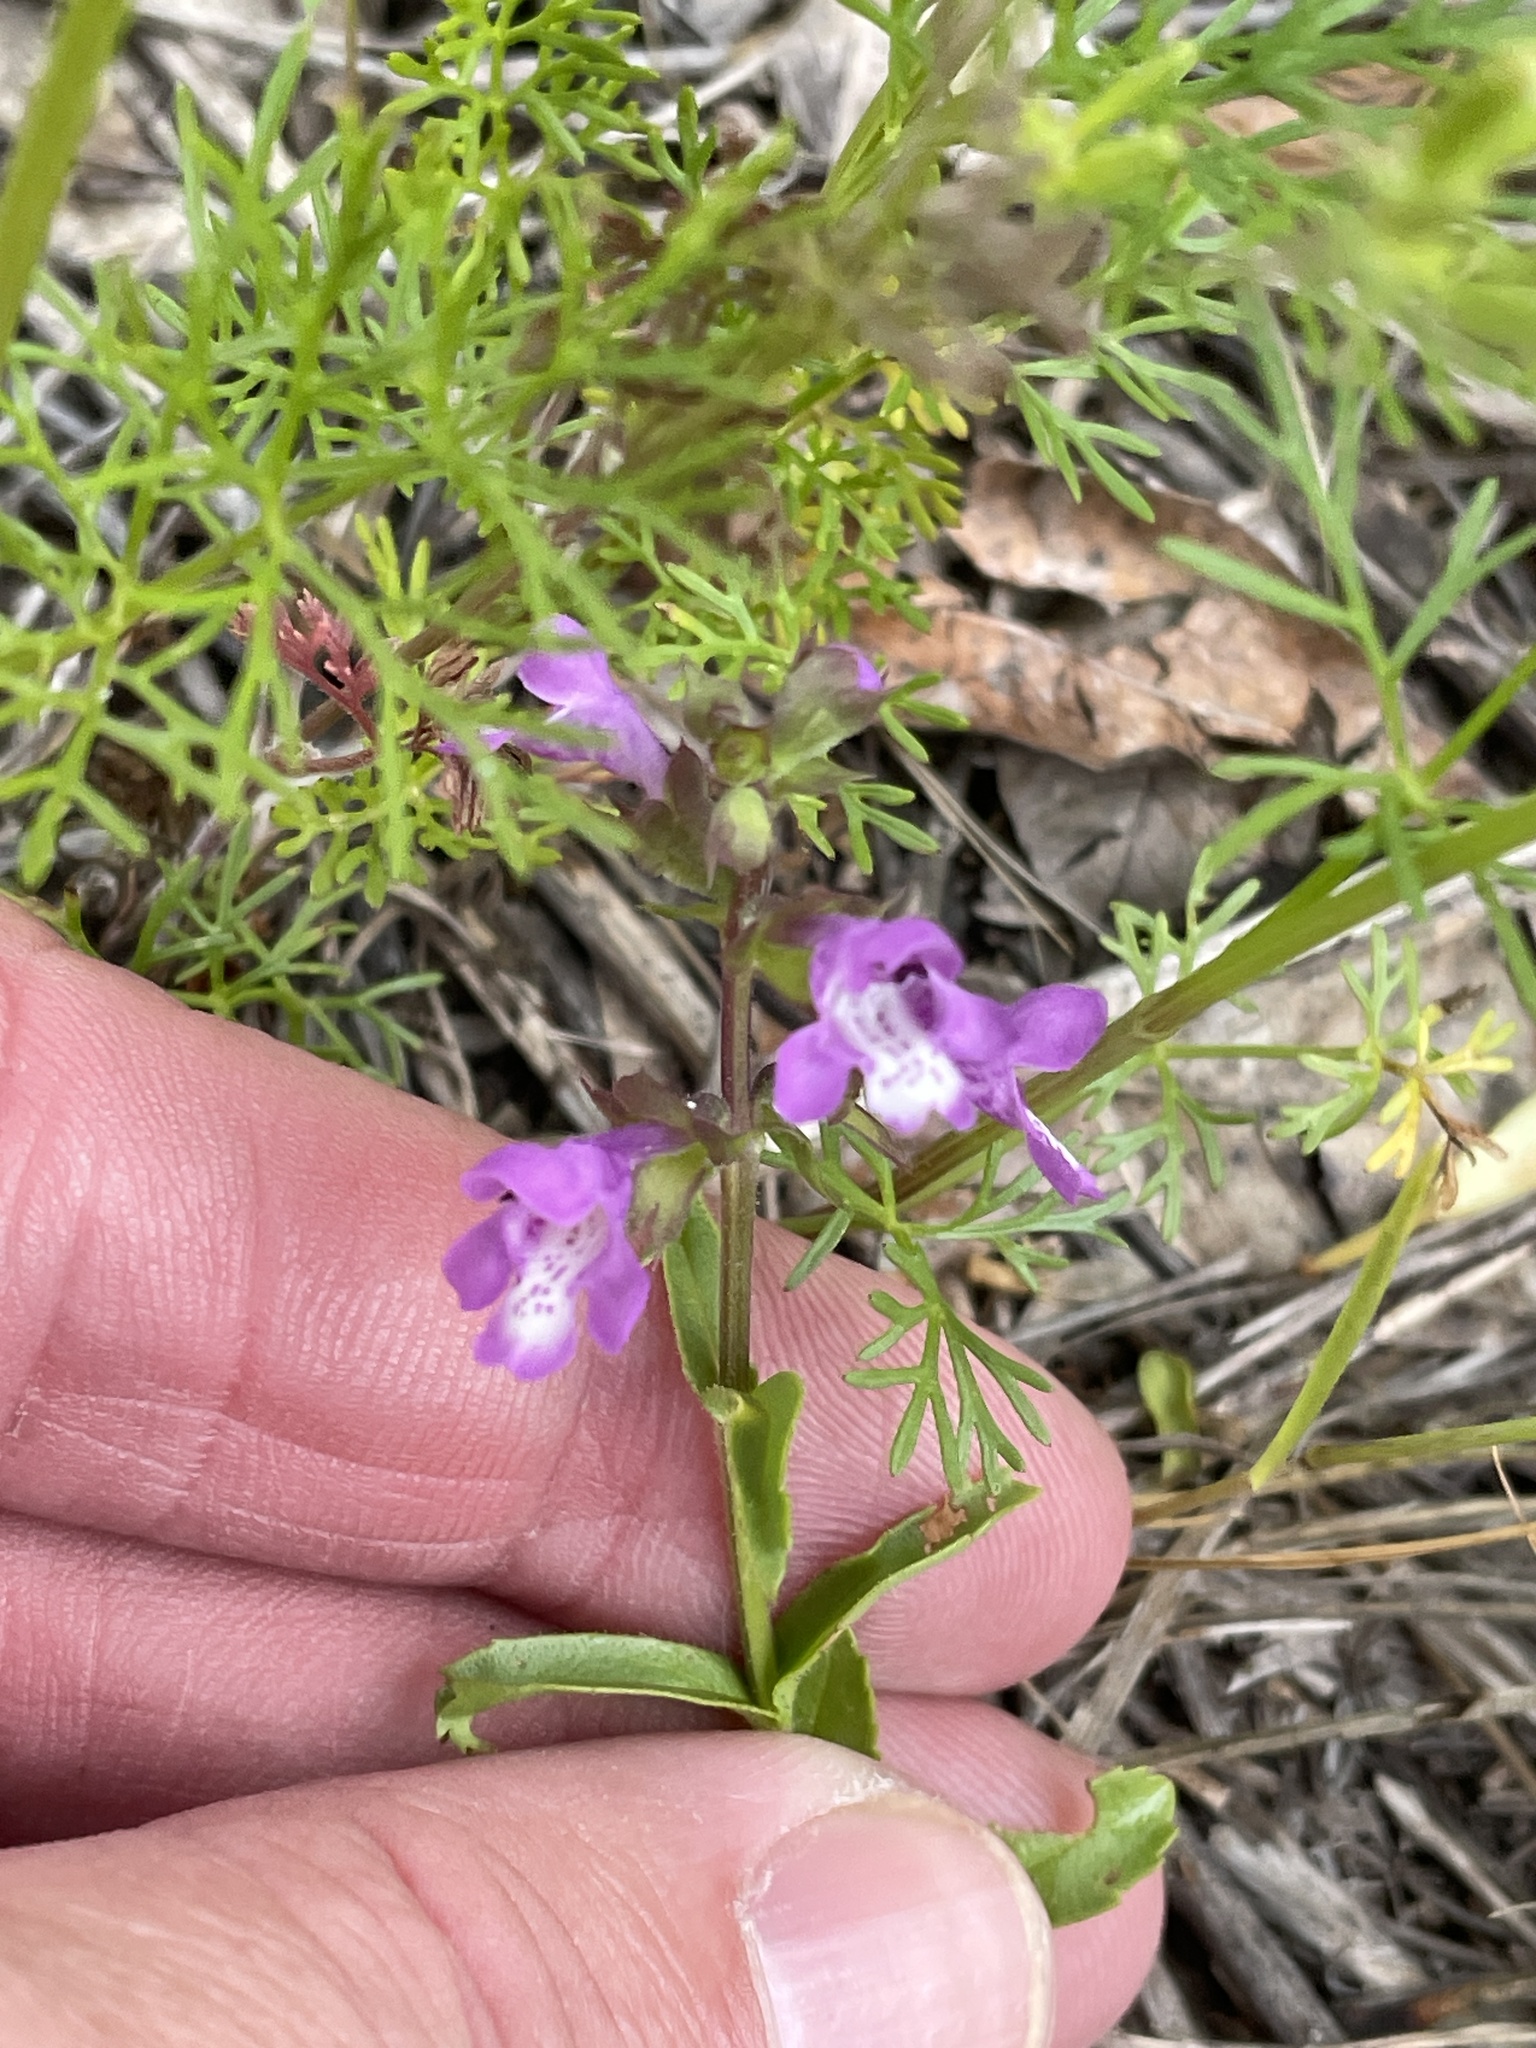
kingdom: Plantae
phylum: Tracheophyta
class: Magnoliopsida
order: Lamiales
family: Lamiaceae
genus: Warnockia
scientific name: Warnockia scutellarioides
